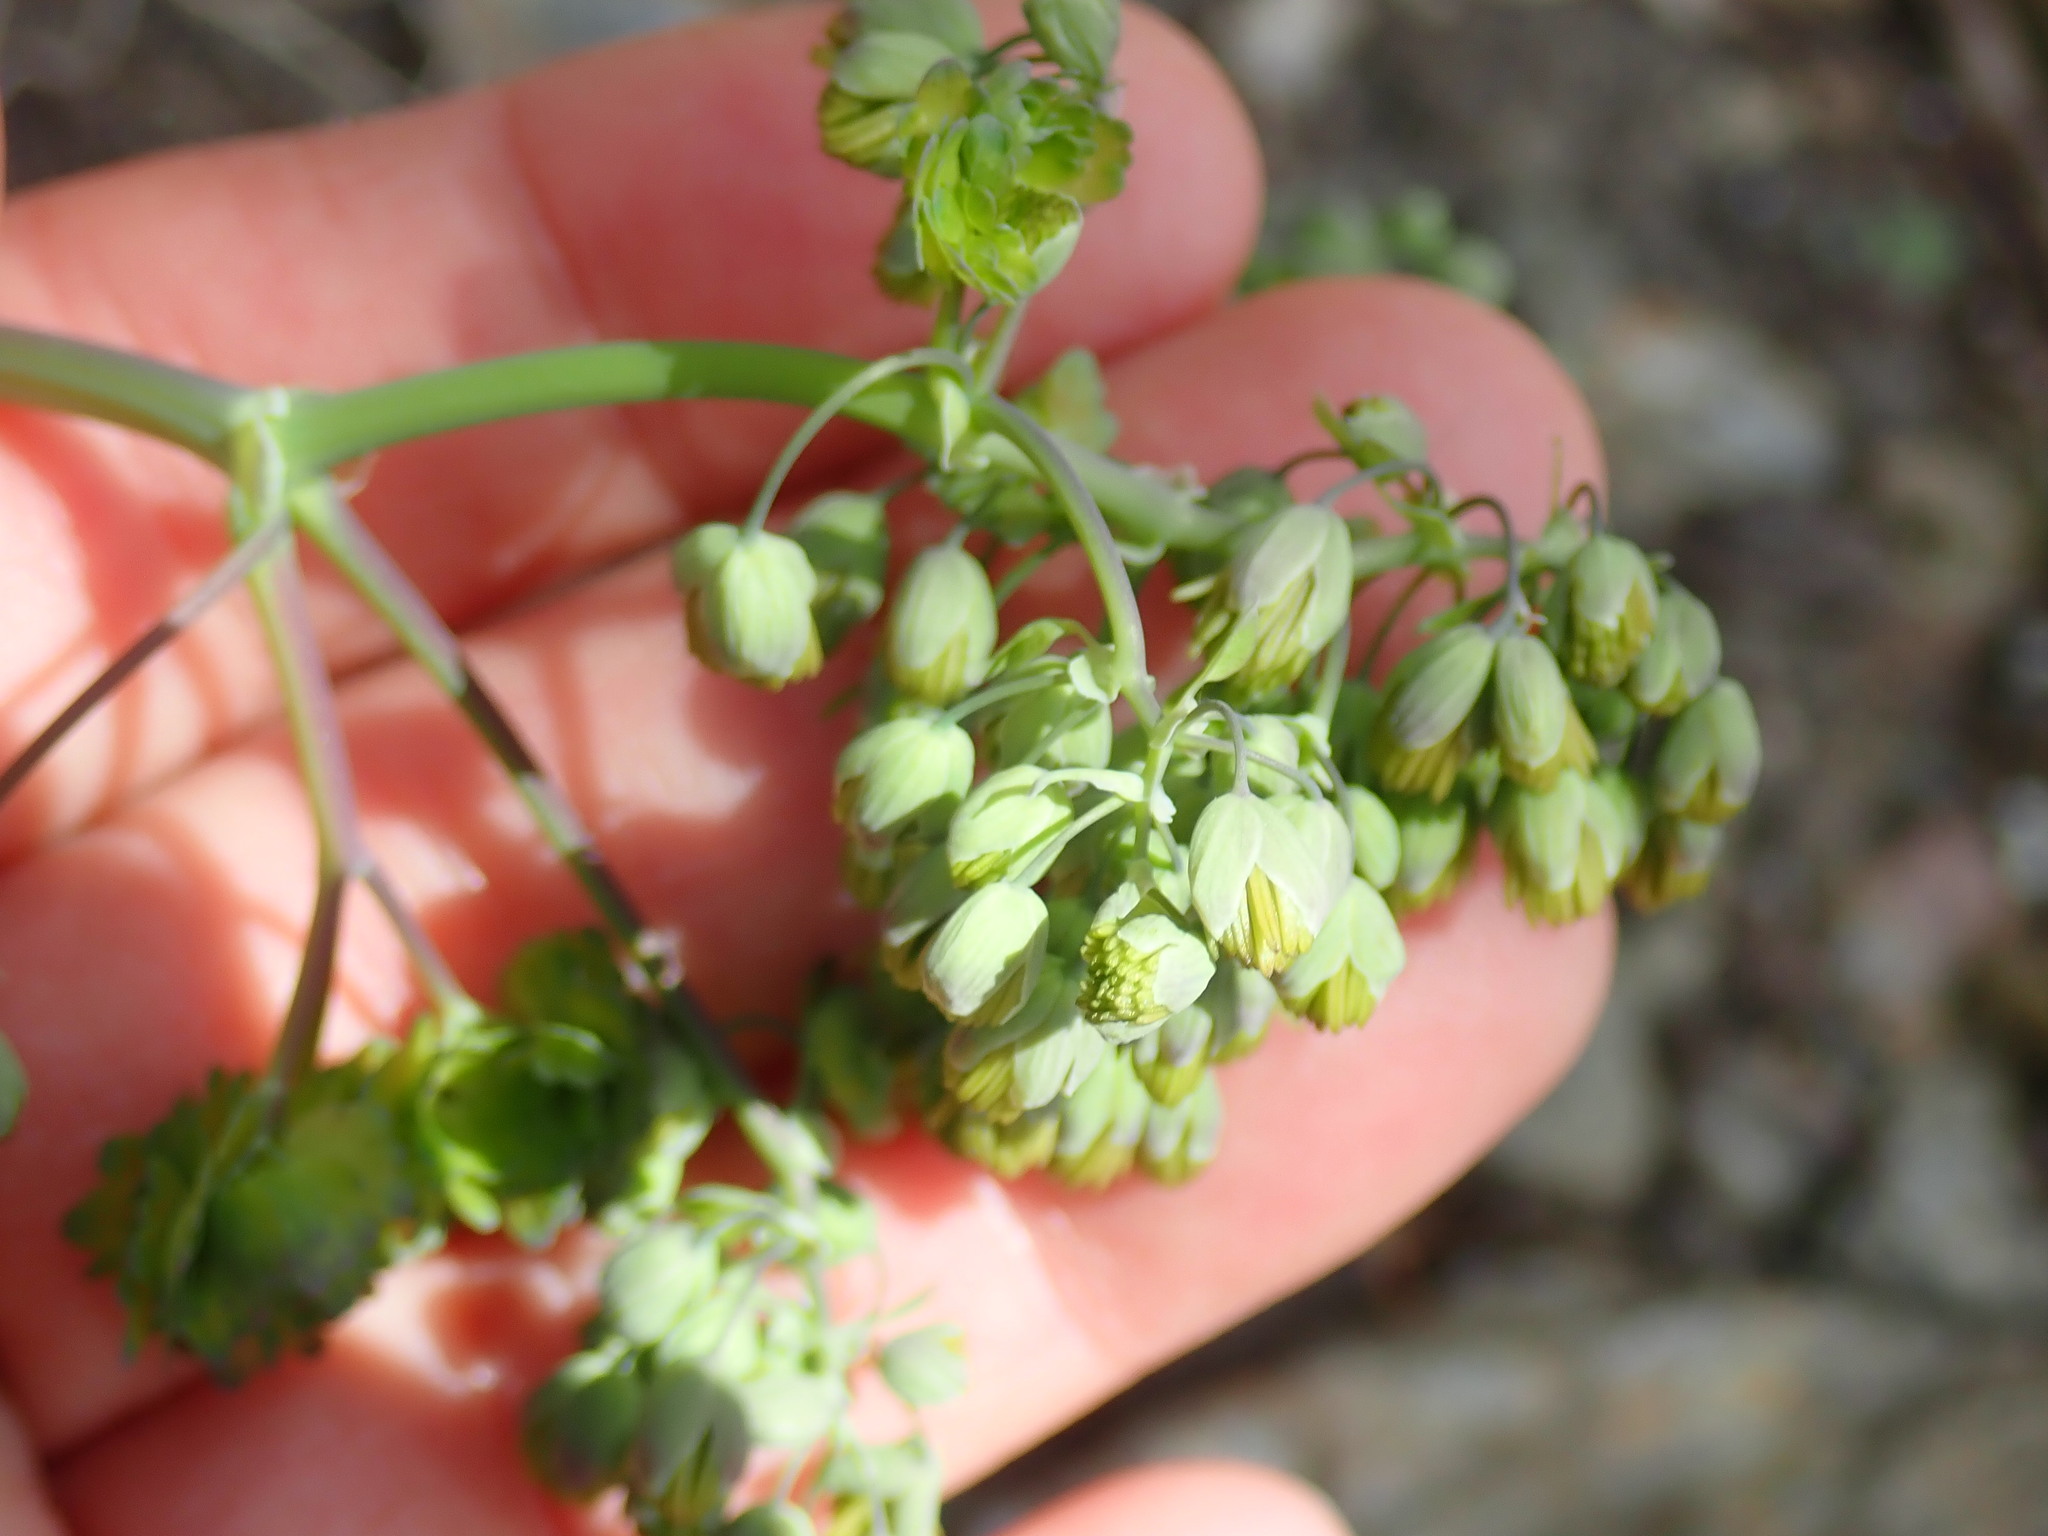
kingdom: Plantae
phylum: Tracheophyta
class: Magnoliopsida
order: Ranunculales
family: Ranunculaceae
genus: Thalictrum
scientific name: Thalictrum dioicum
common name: Early meadow-rue
